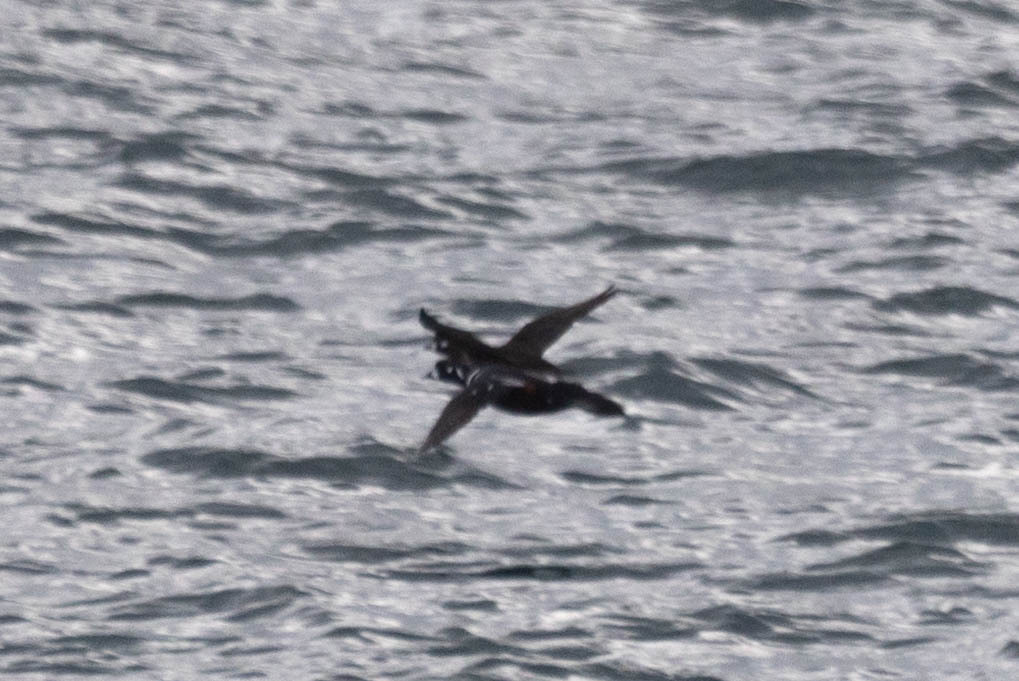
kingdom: Animalia
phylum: Chordata
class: Aves
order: Anseriformes
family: Anatidae
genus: Histrionicus
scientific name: Histrionicus histrionicus
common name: Harlequin duck
